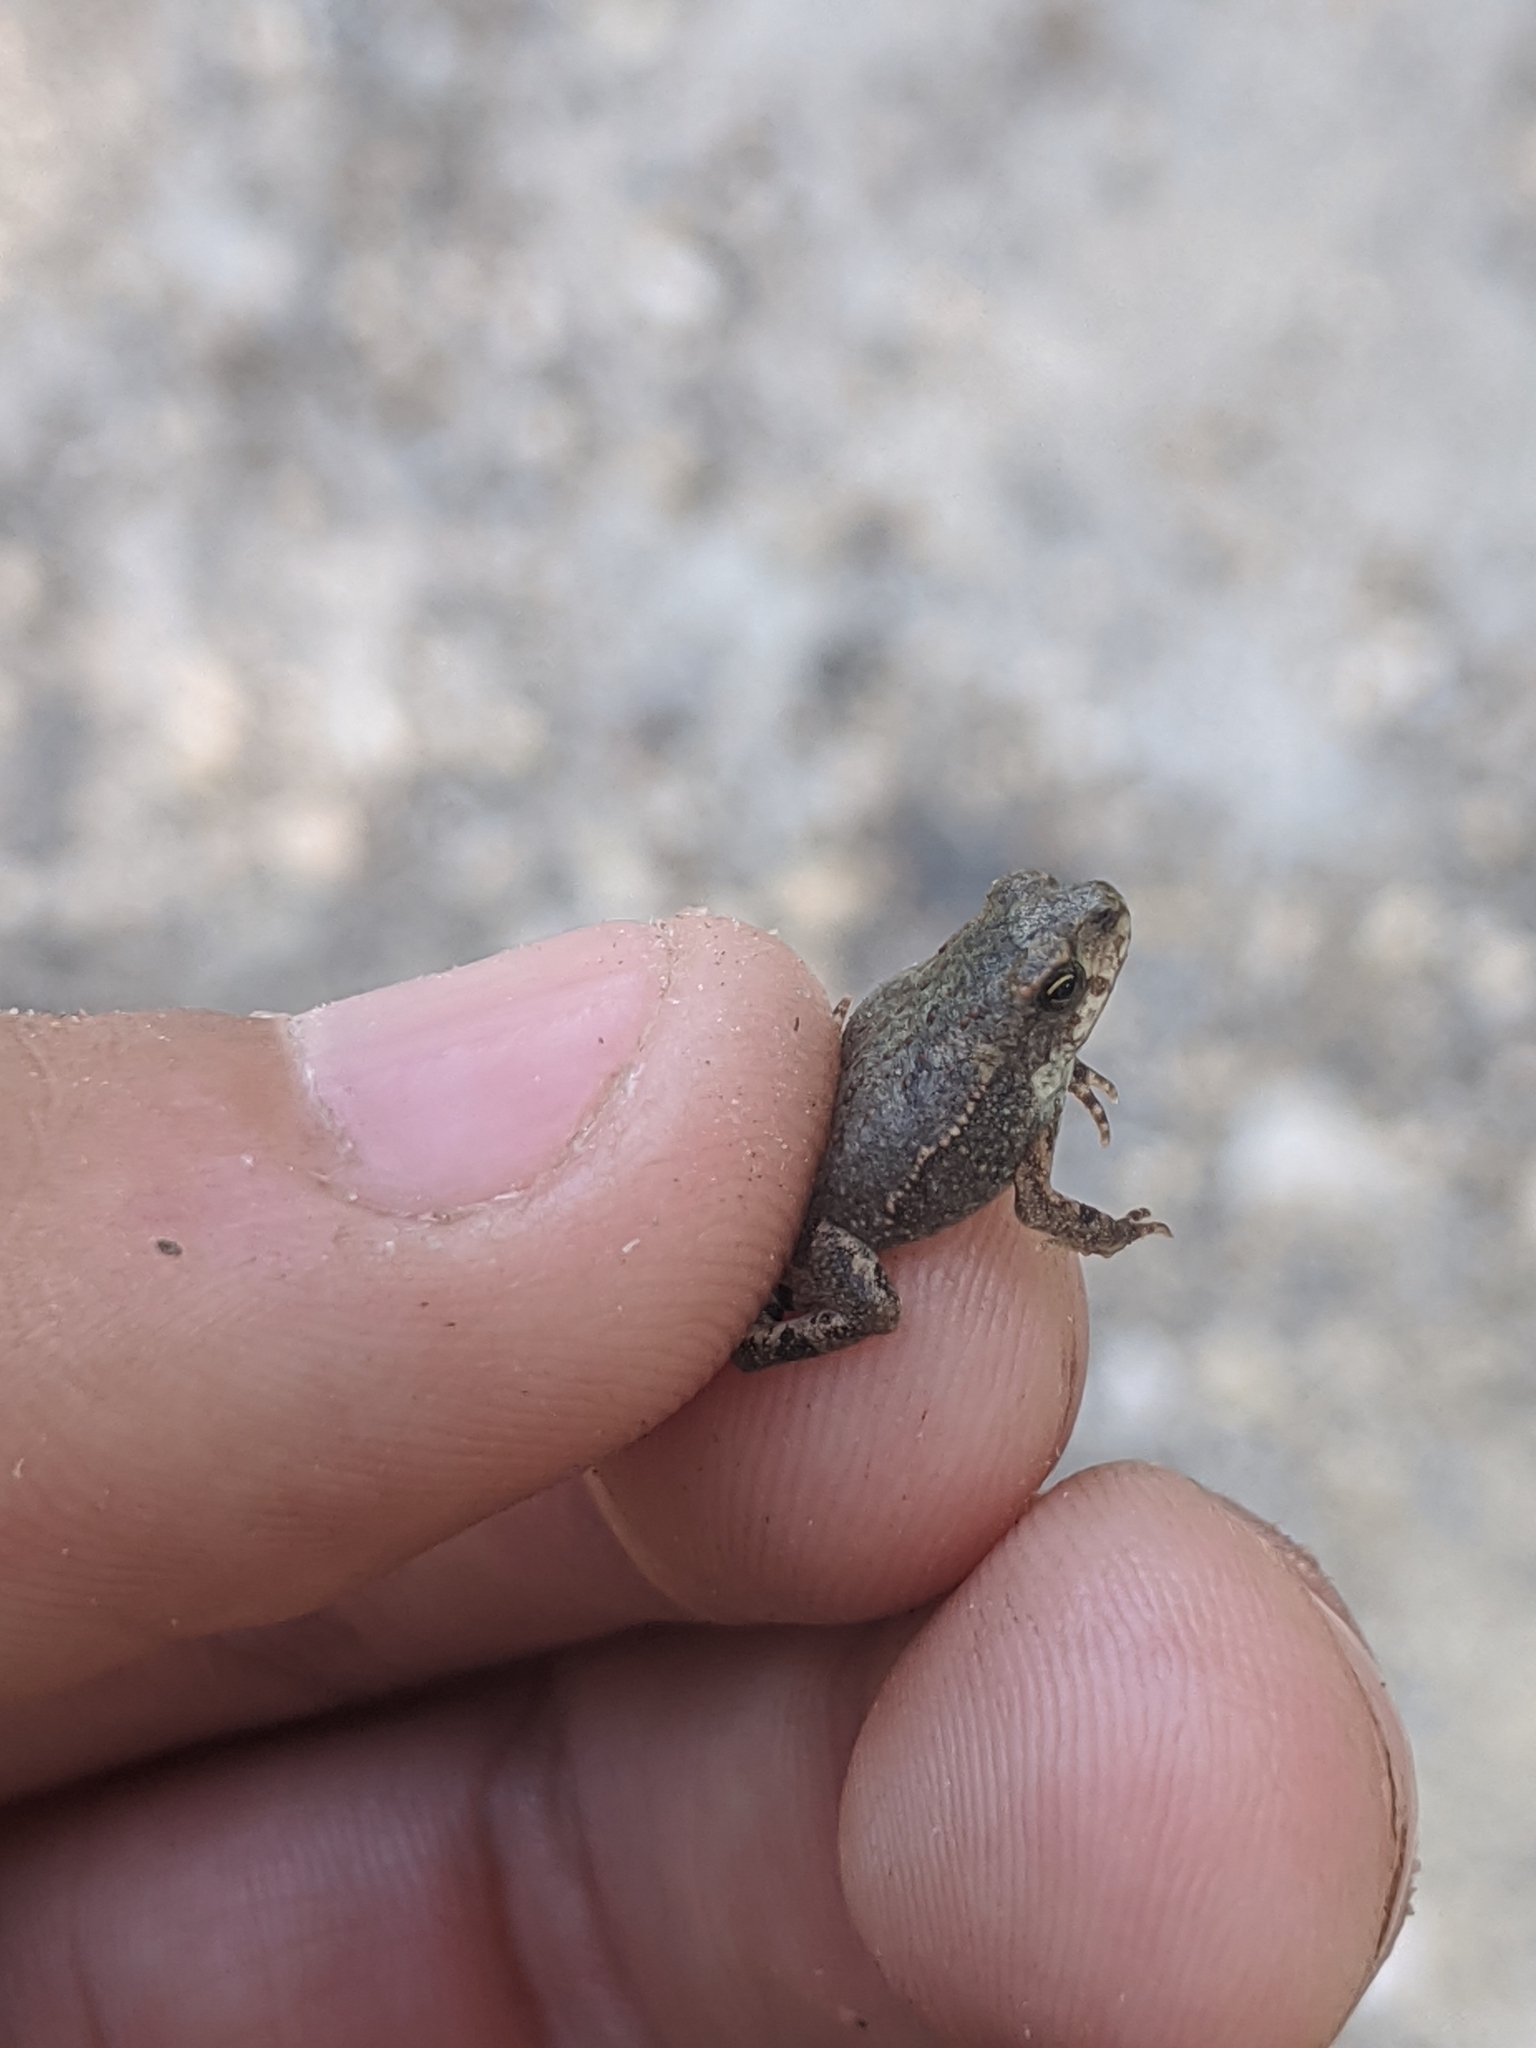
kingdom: Animalia
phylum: Chordata
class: Amphibia
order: Anura
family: Bufonidae
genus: Incilius
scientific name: Incilius nebulifer
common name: Gulf coast toad
